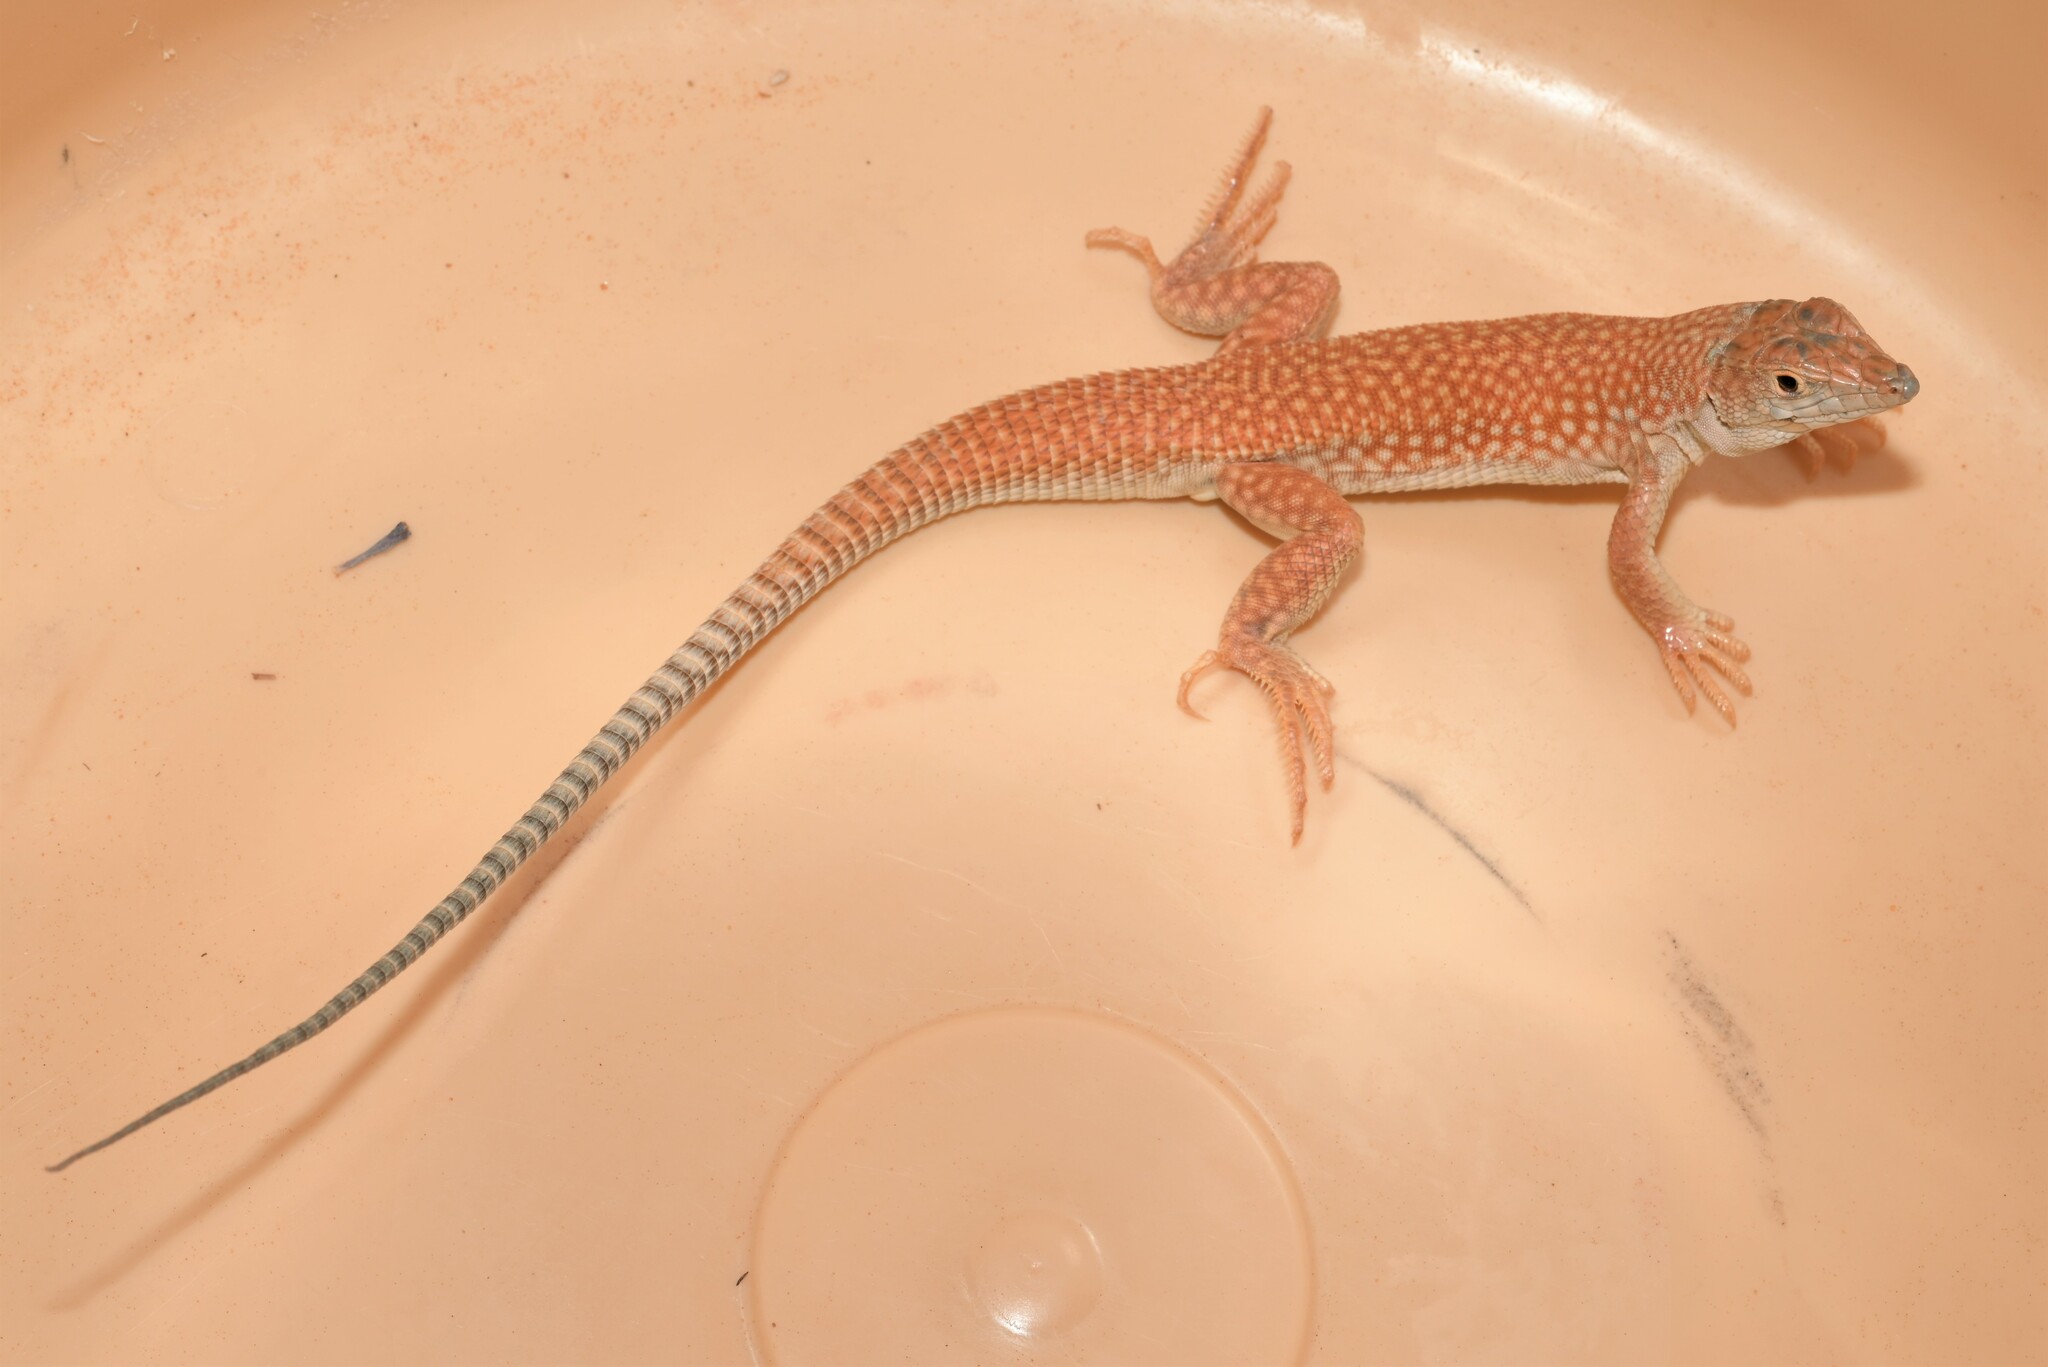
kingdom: Animalia
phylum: Chordata
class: Squamata
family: Lacertidae
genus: Acanthodactylus
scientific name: Acanthodactylus schmidti
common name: Schmidt's fringe-toed lizard
